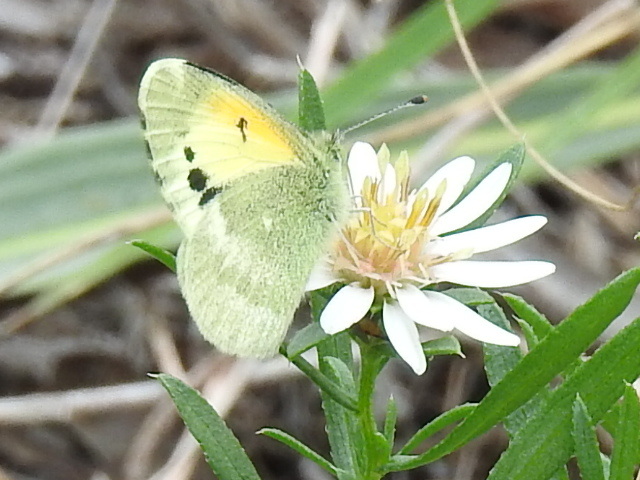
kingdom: Animalia
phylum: Arthropoda
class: Insecta
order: Lepidoptera
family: Pieridae
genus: Nathalis
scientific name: Nathalis iole
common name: Dainty sulphur
